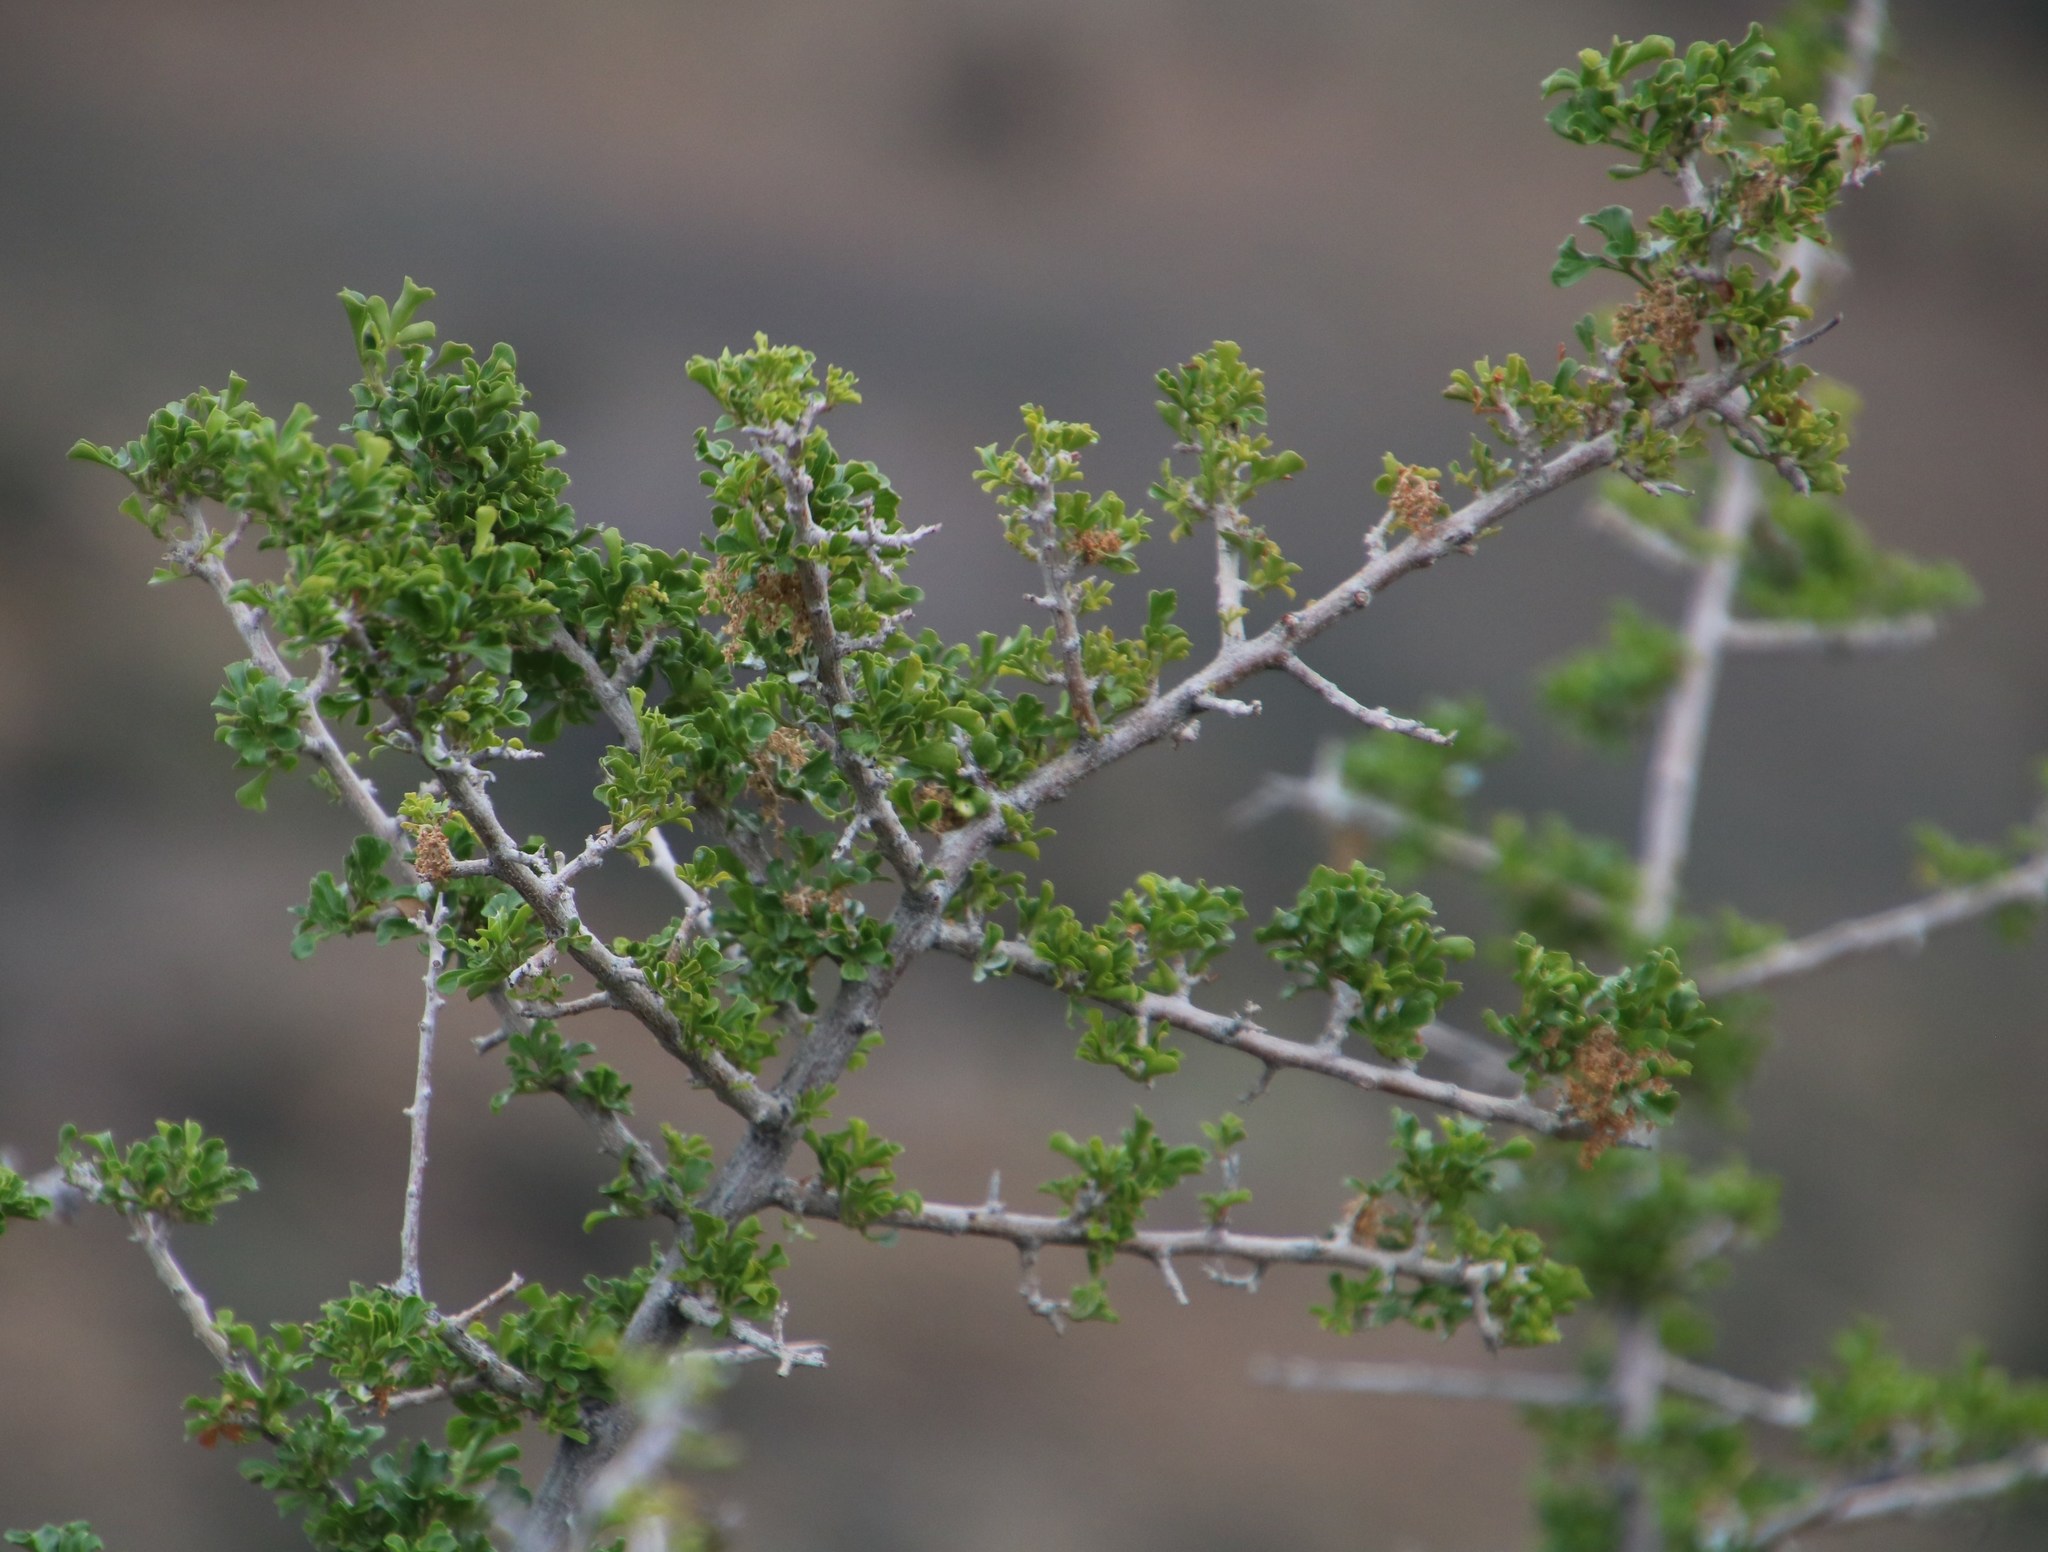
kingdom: Plantae
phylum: Tracheophyta
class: Magnoliopsida
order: Sapindales
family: Anacardiaceae
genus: Searsia
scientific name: Searsia burchellii
